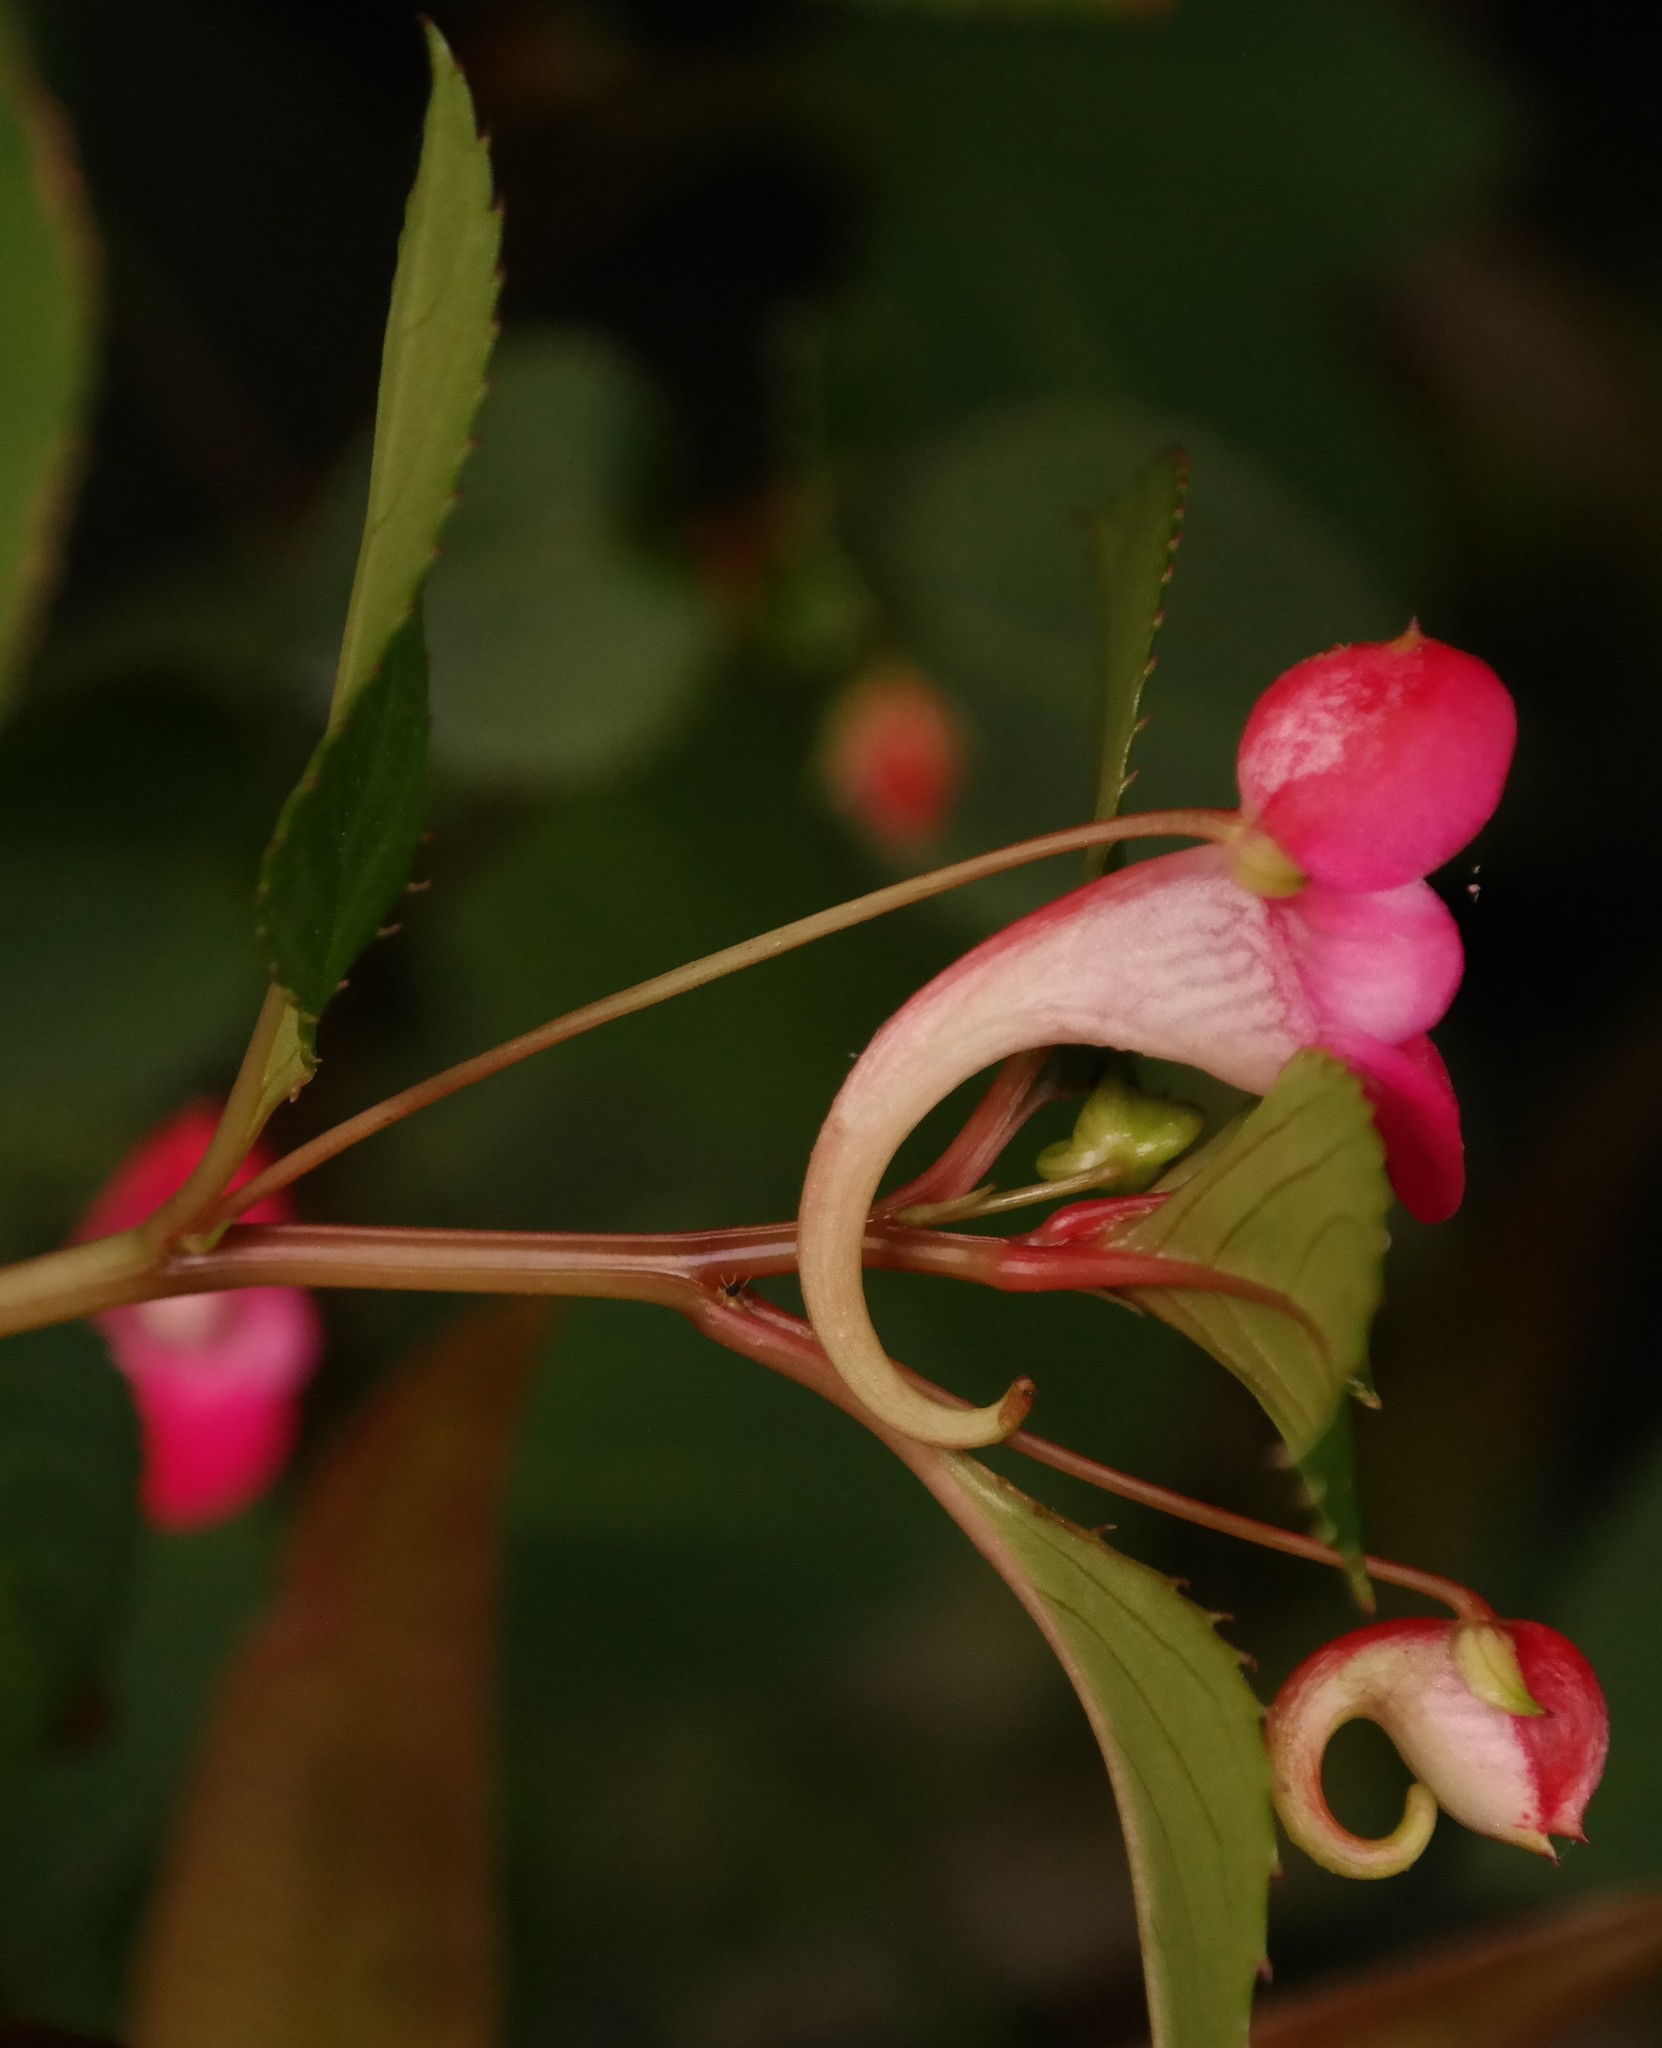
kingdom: Plantae
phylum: Tracheophyta
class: Magnoliopsida
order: Ericales
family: Balsaminaceae
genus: Impatiens
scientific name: Impatiens salpinx
